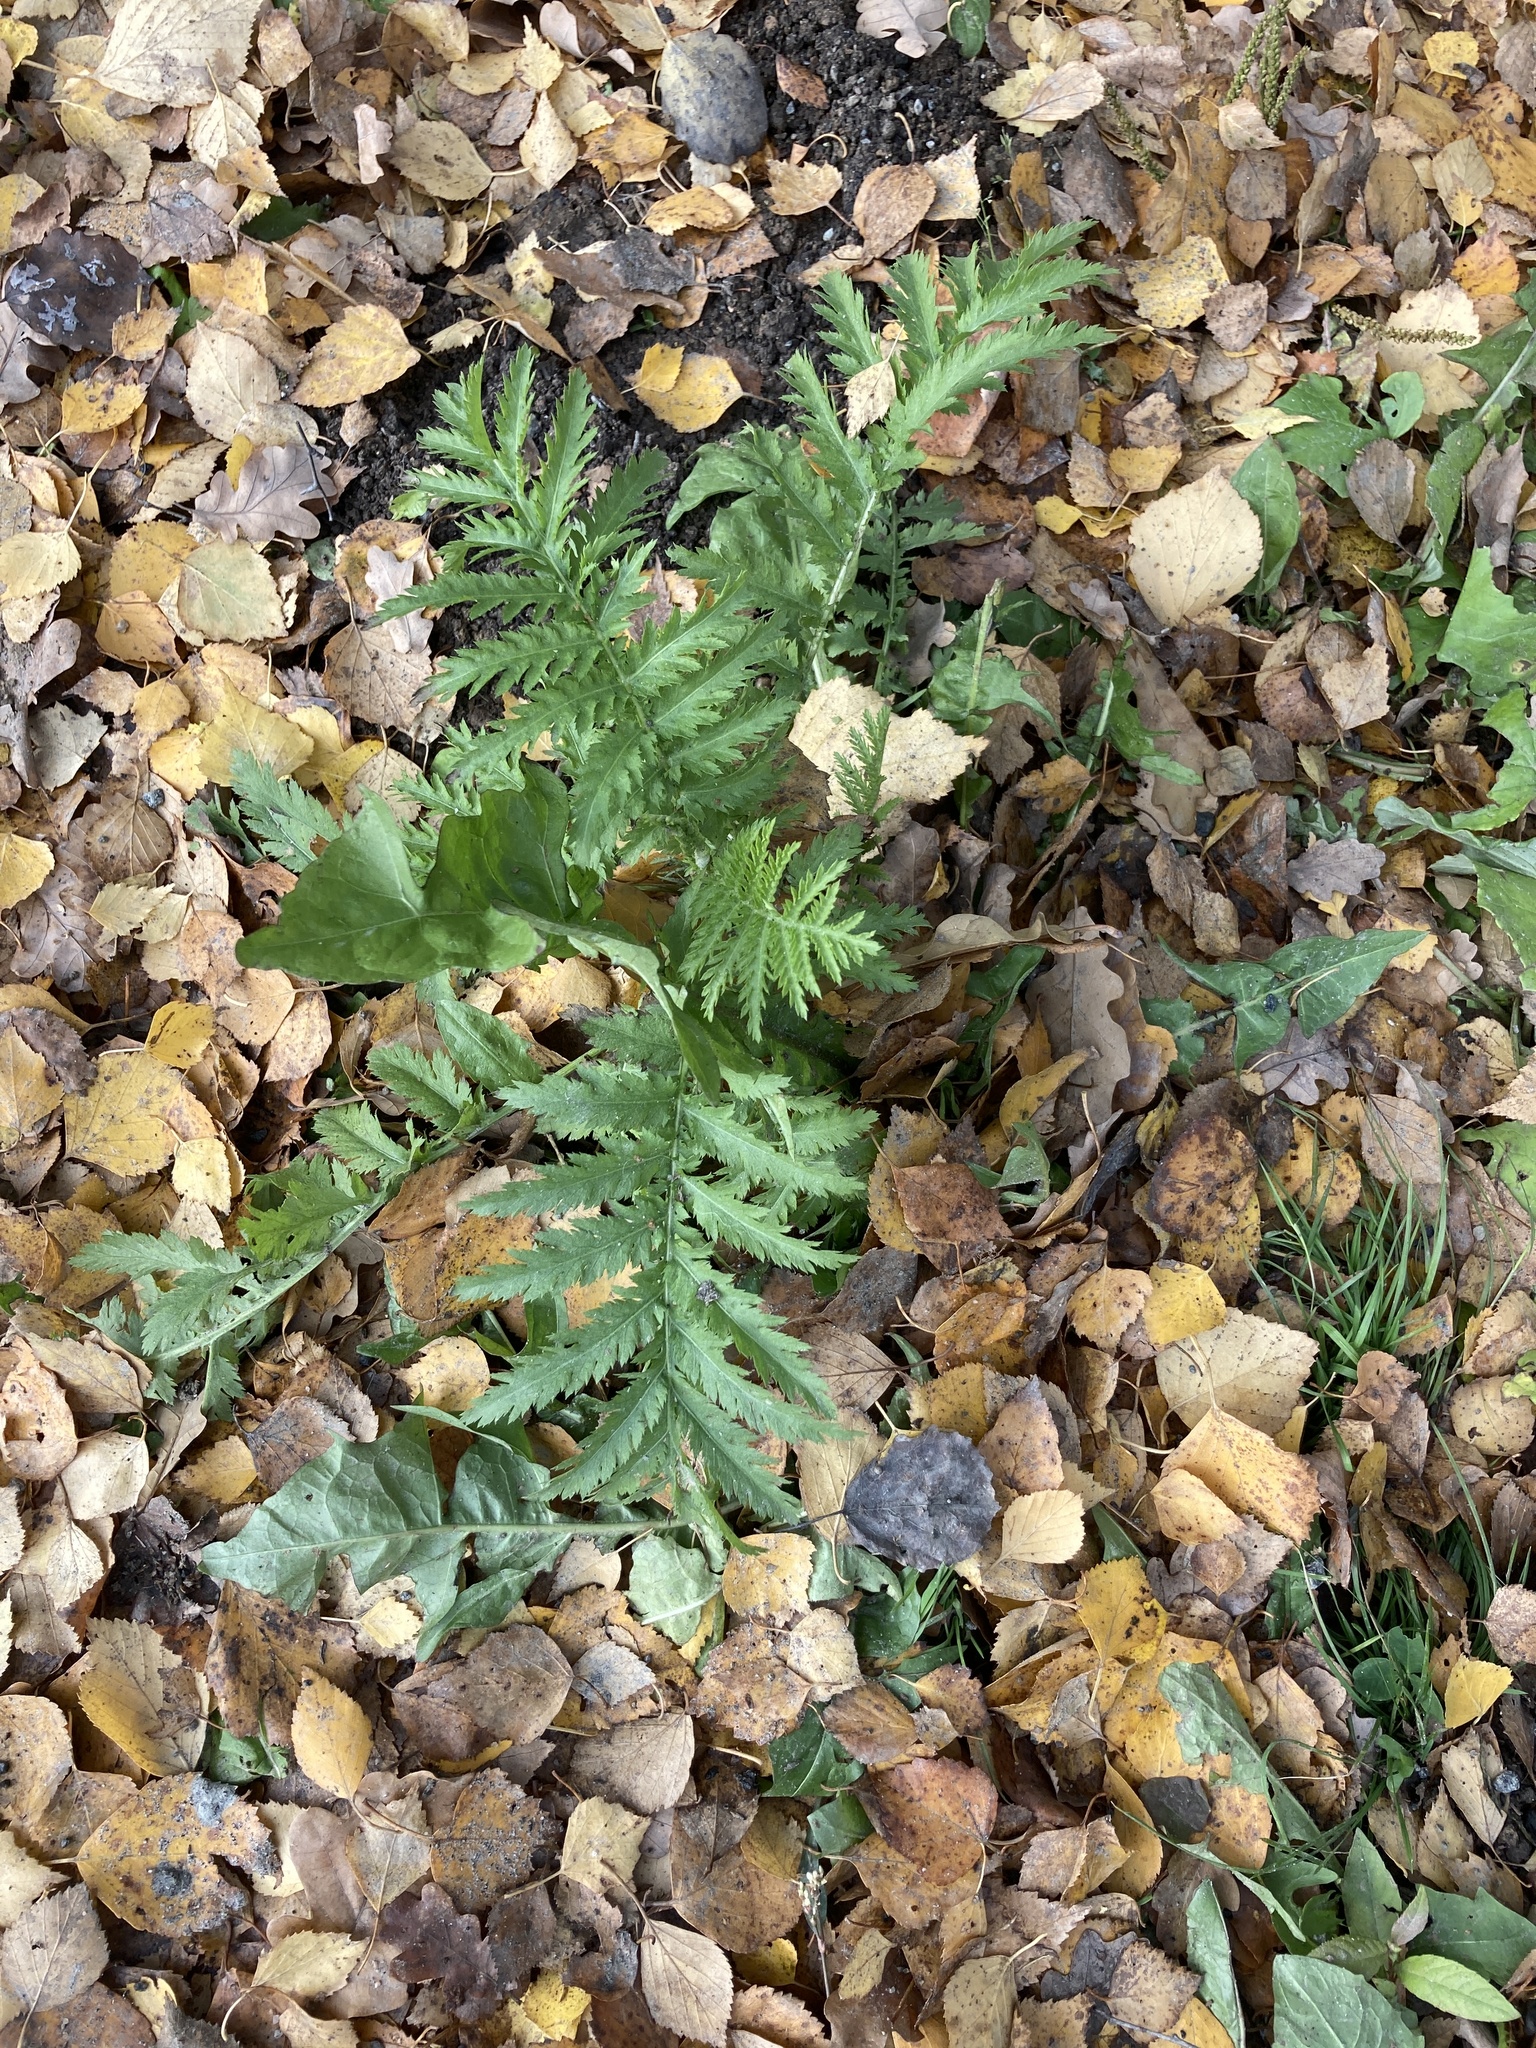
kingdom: Plantae
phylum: Tracheophyta
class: Magnoliopsida
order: Asterales
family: Asteraceae
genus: Tanacetum
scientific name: Tanacetum vulgare
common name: Common tansy
